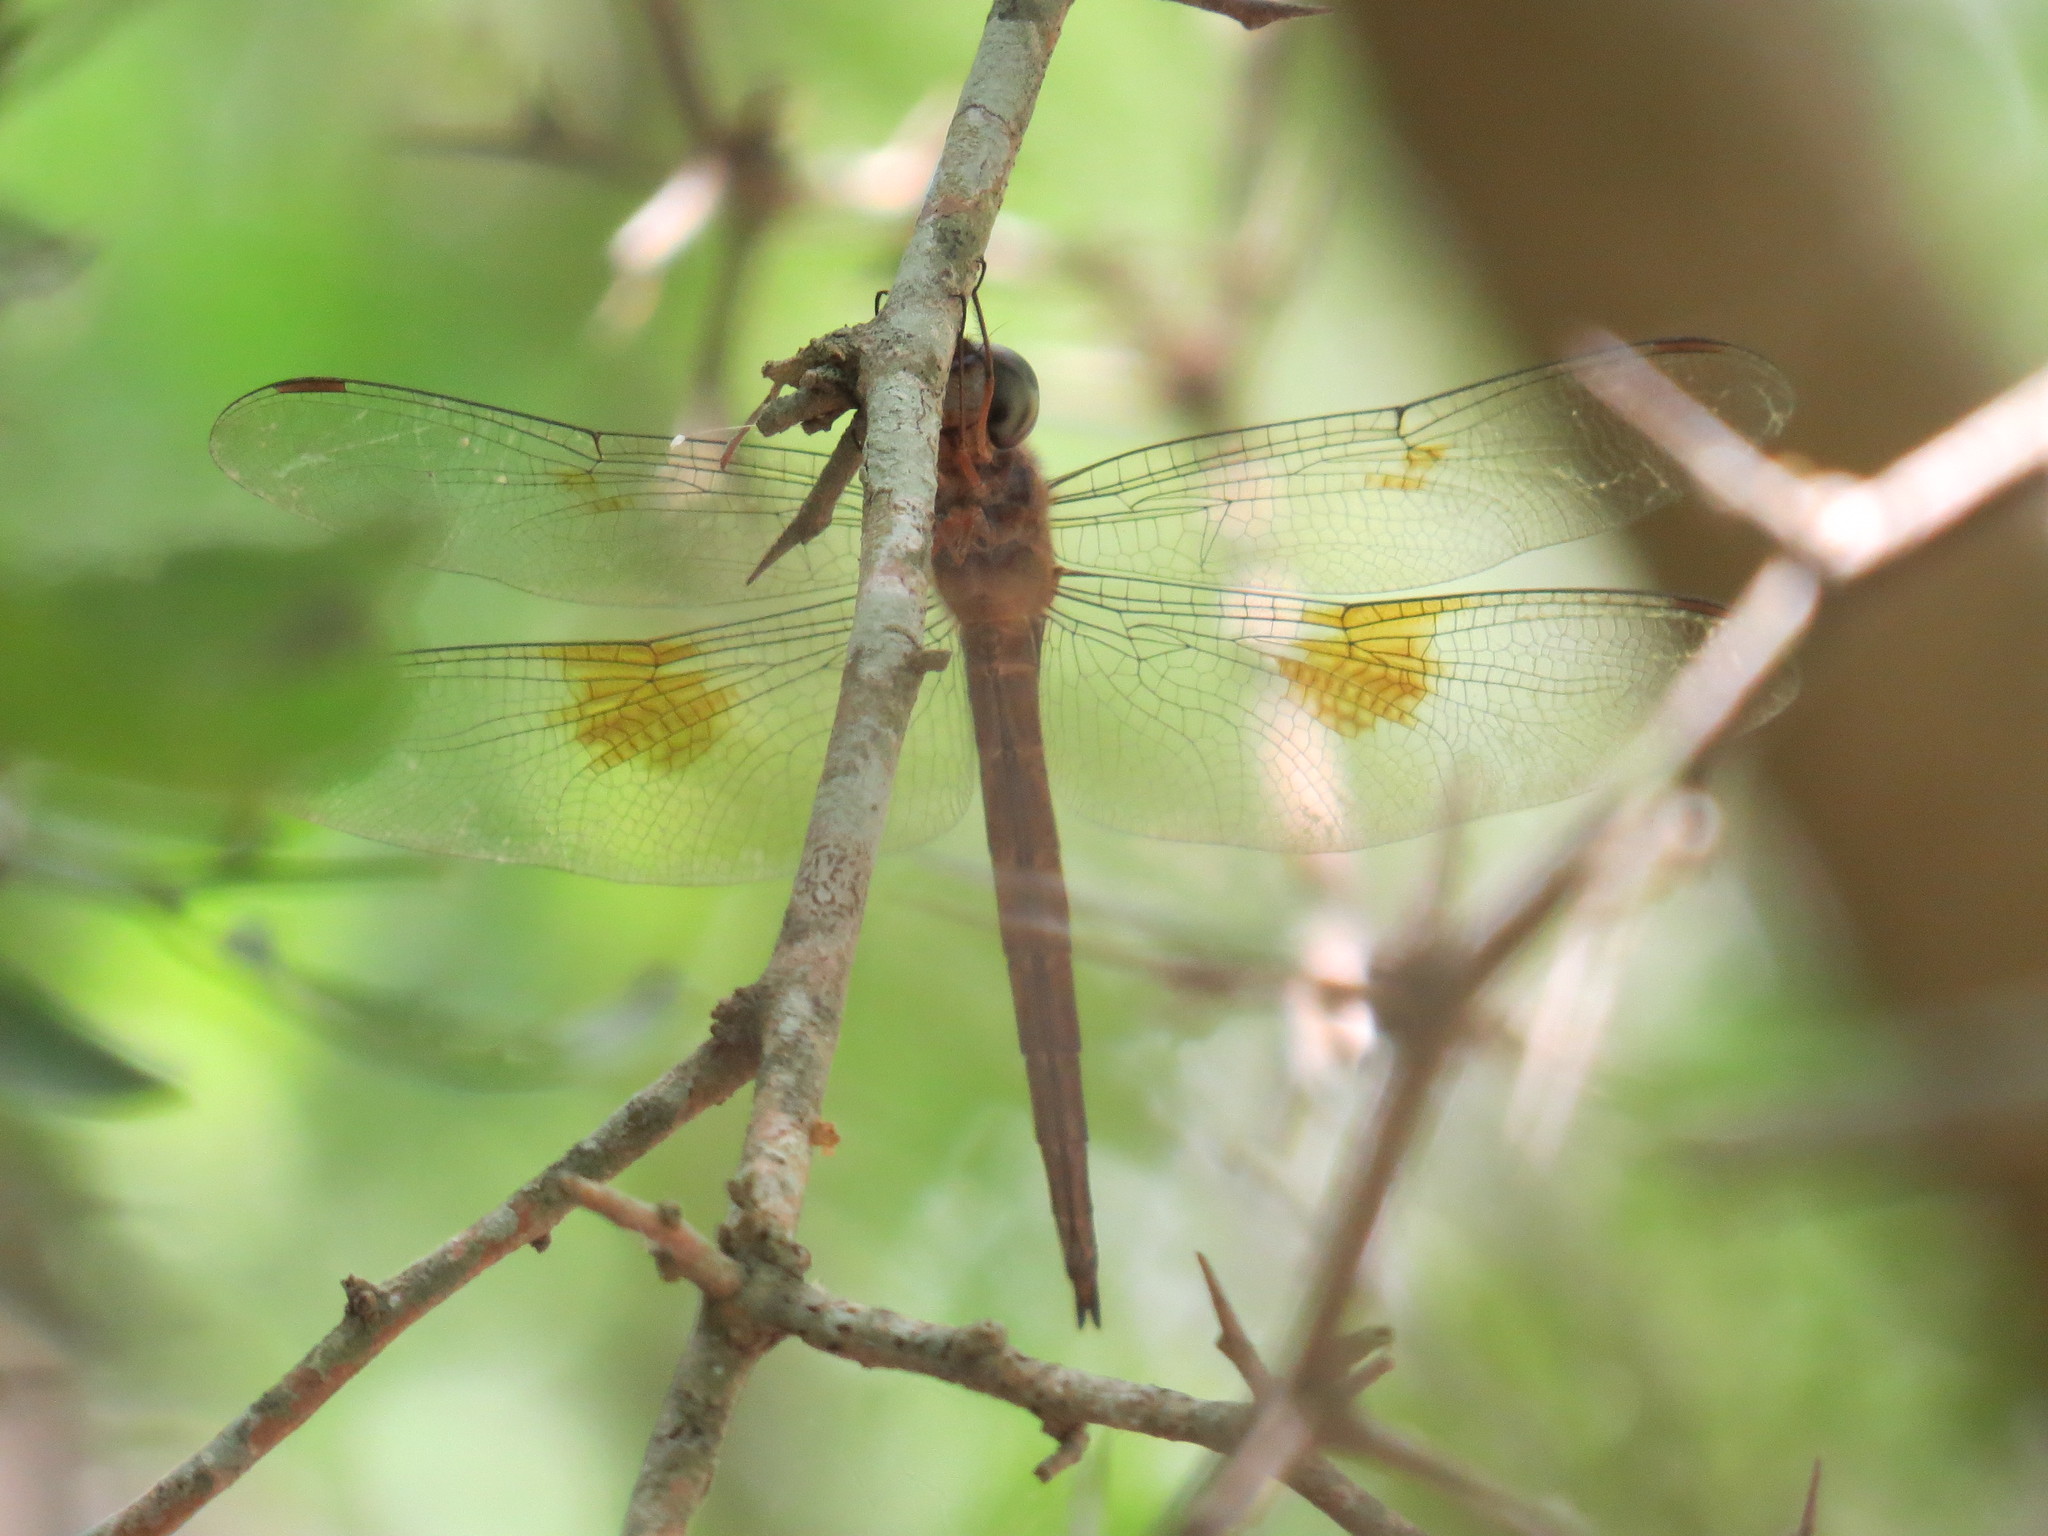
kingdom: Animalia
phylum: Arthropoda
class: Insecta
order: Odonata
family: Libellulidae
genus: Tholymis
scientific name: Tholymis citrina
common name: Evening skimmer
